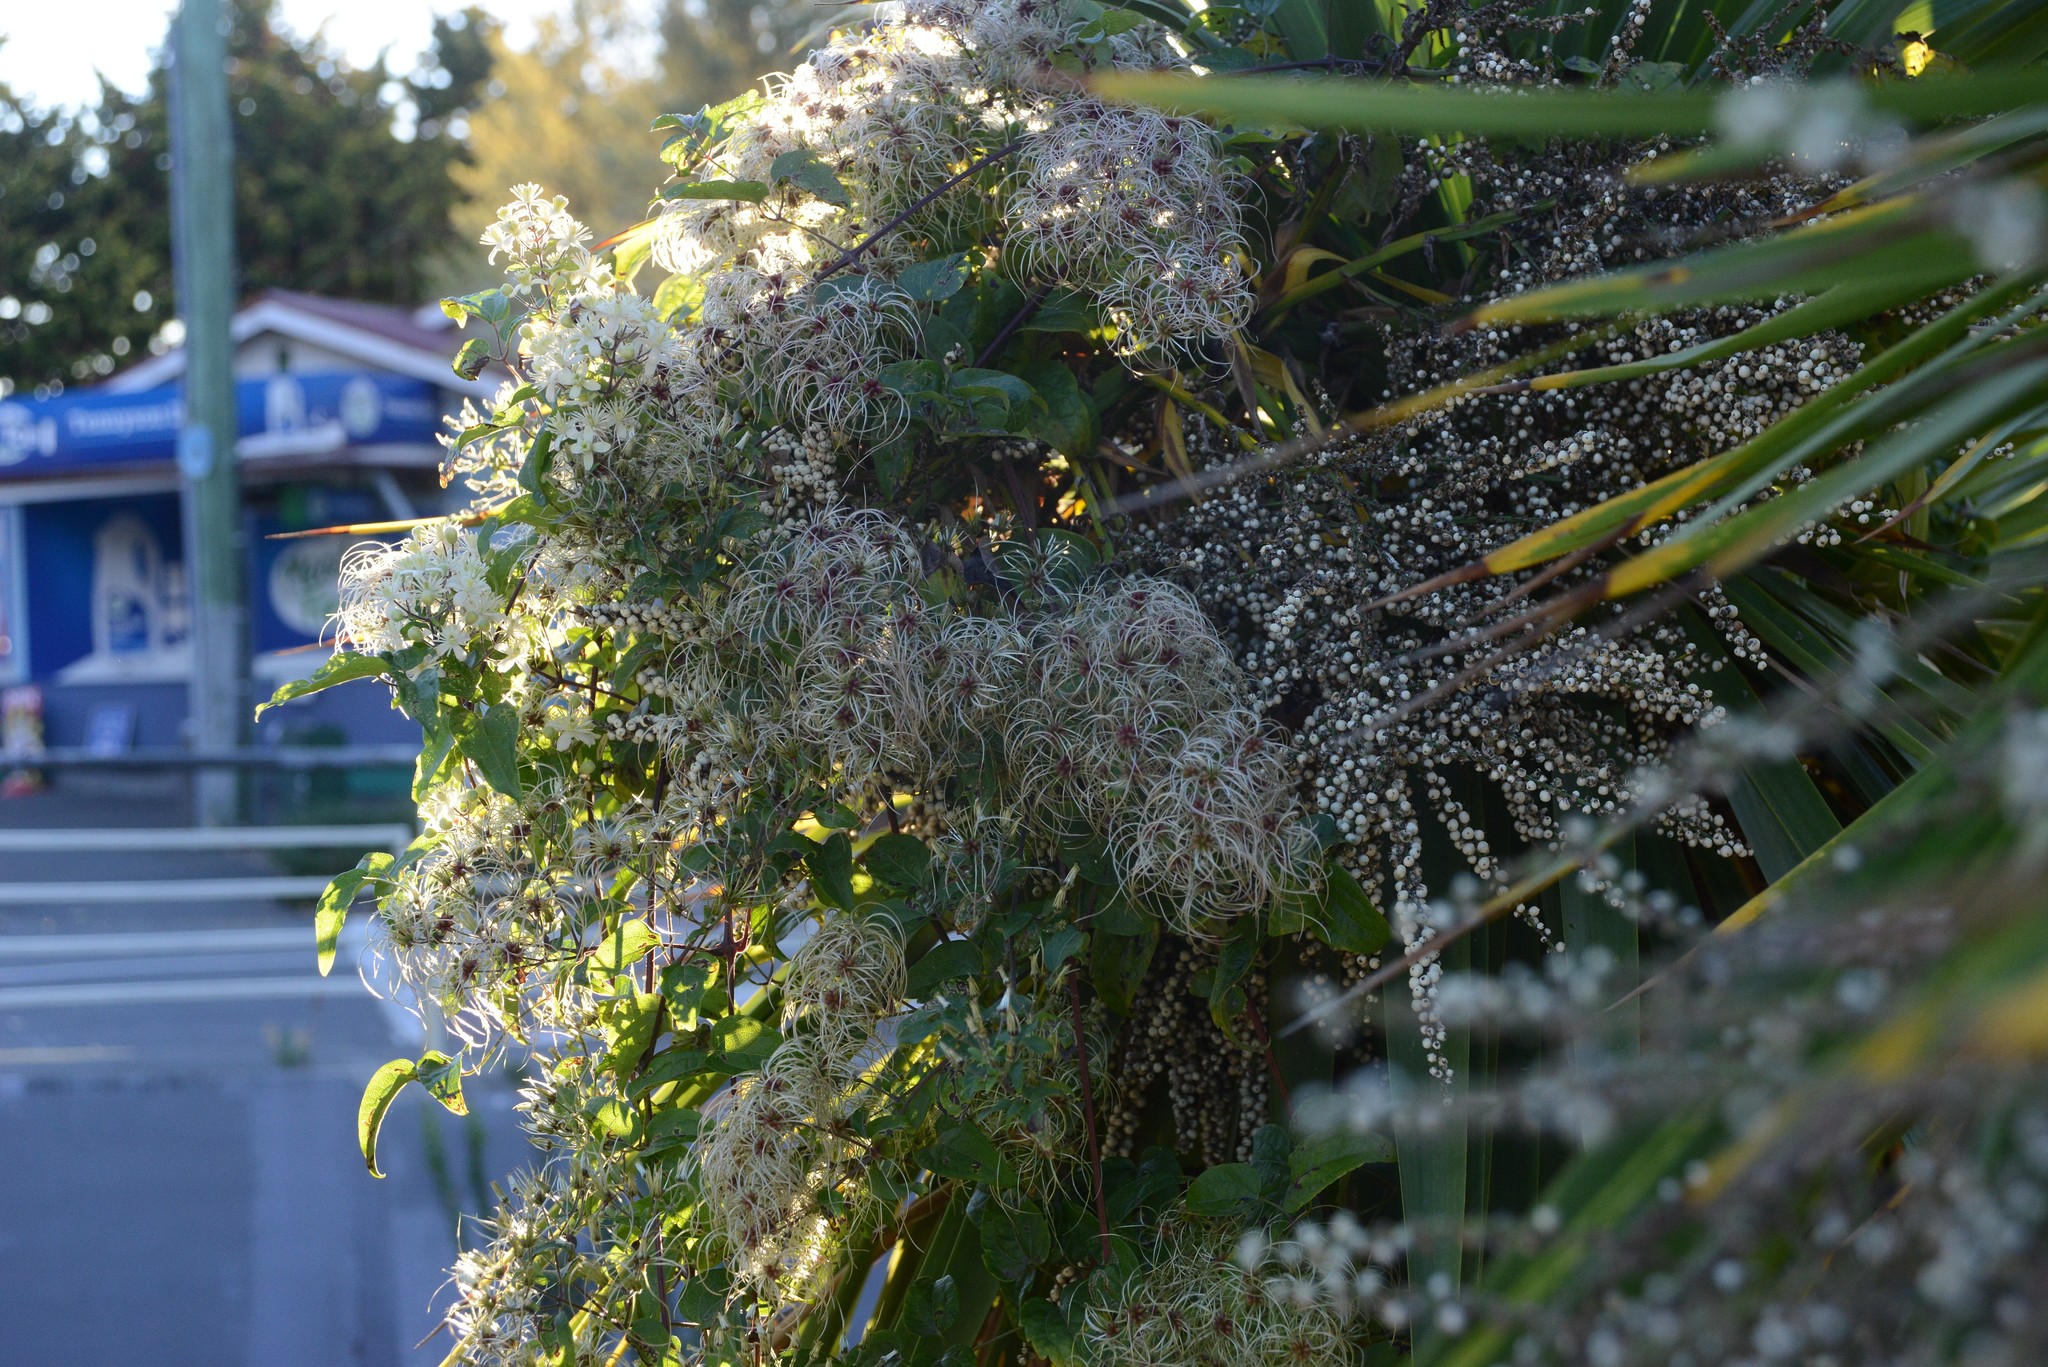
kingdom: Plantae
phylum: Tracheophyta
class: Magnoliopsida
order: Ranunculales
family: Ranunculaceae
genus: Clematis
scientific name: Clematis vitalba
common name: Evergreen clematis
